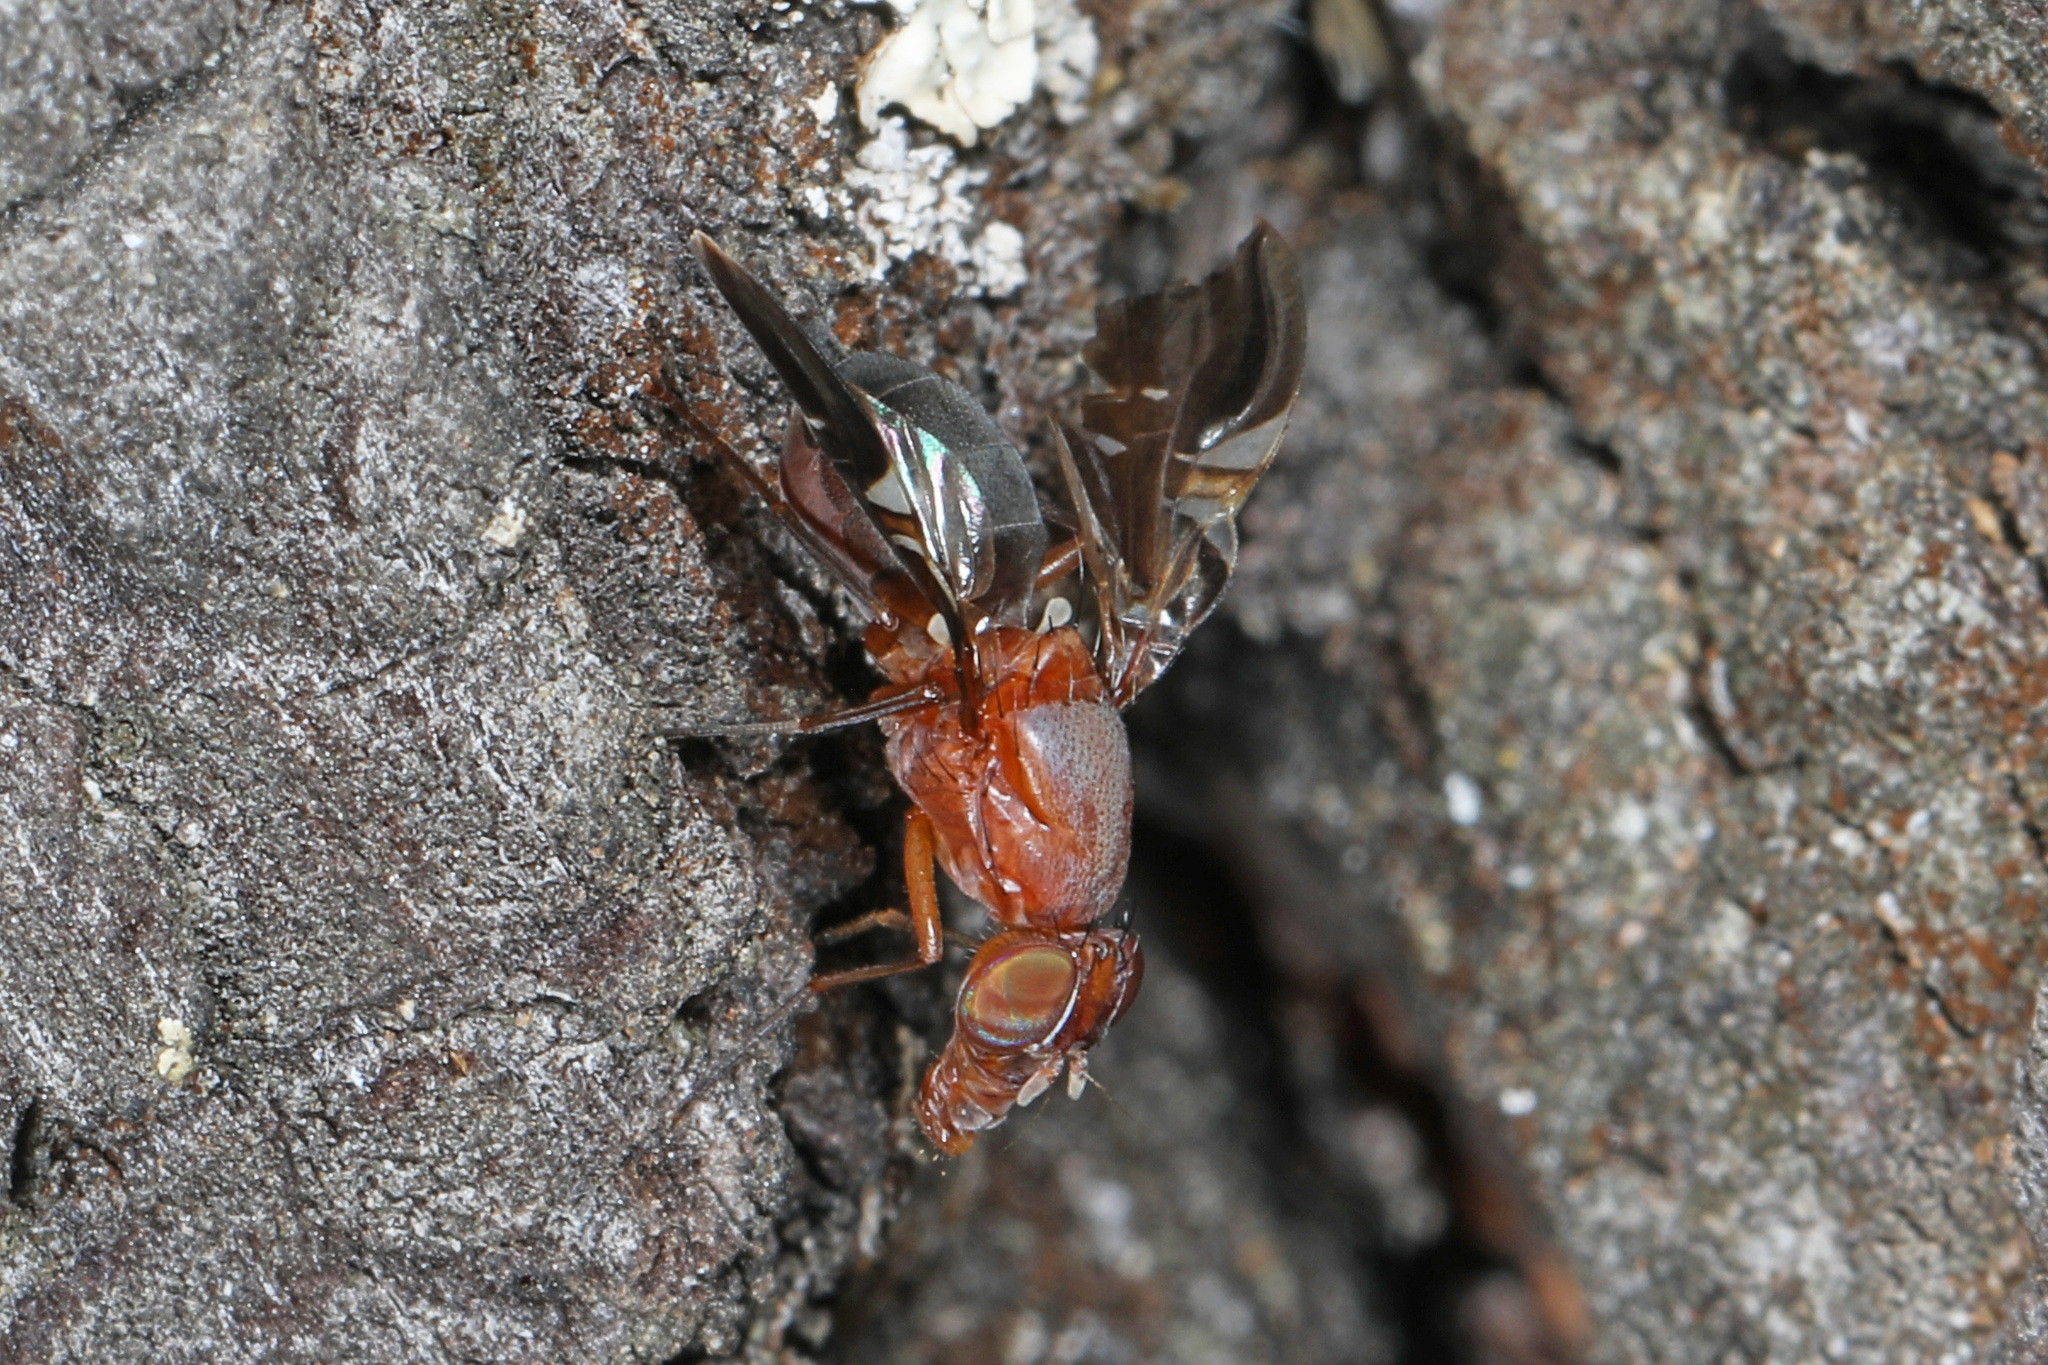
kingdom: Animalia
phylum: Arthropoda
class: Insecta
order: Diptera
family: Ulidiidae
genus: Delphinia
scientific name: Delphinia picta
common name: Common picture-winged fly
